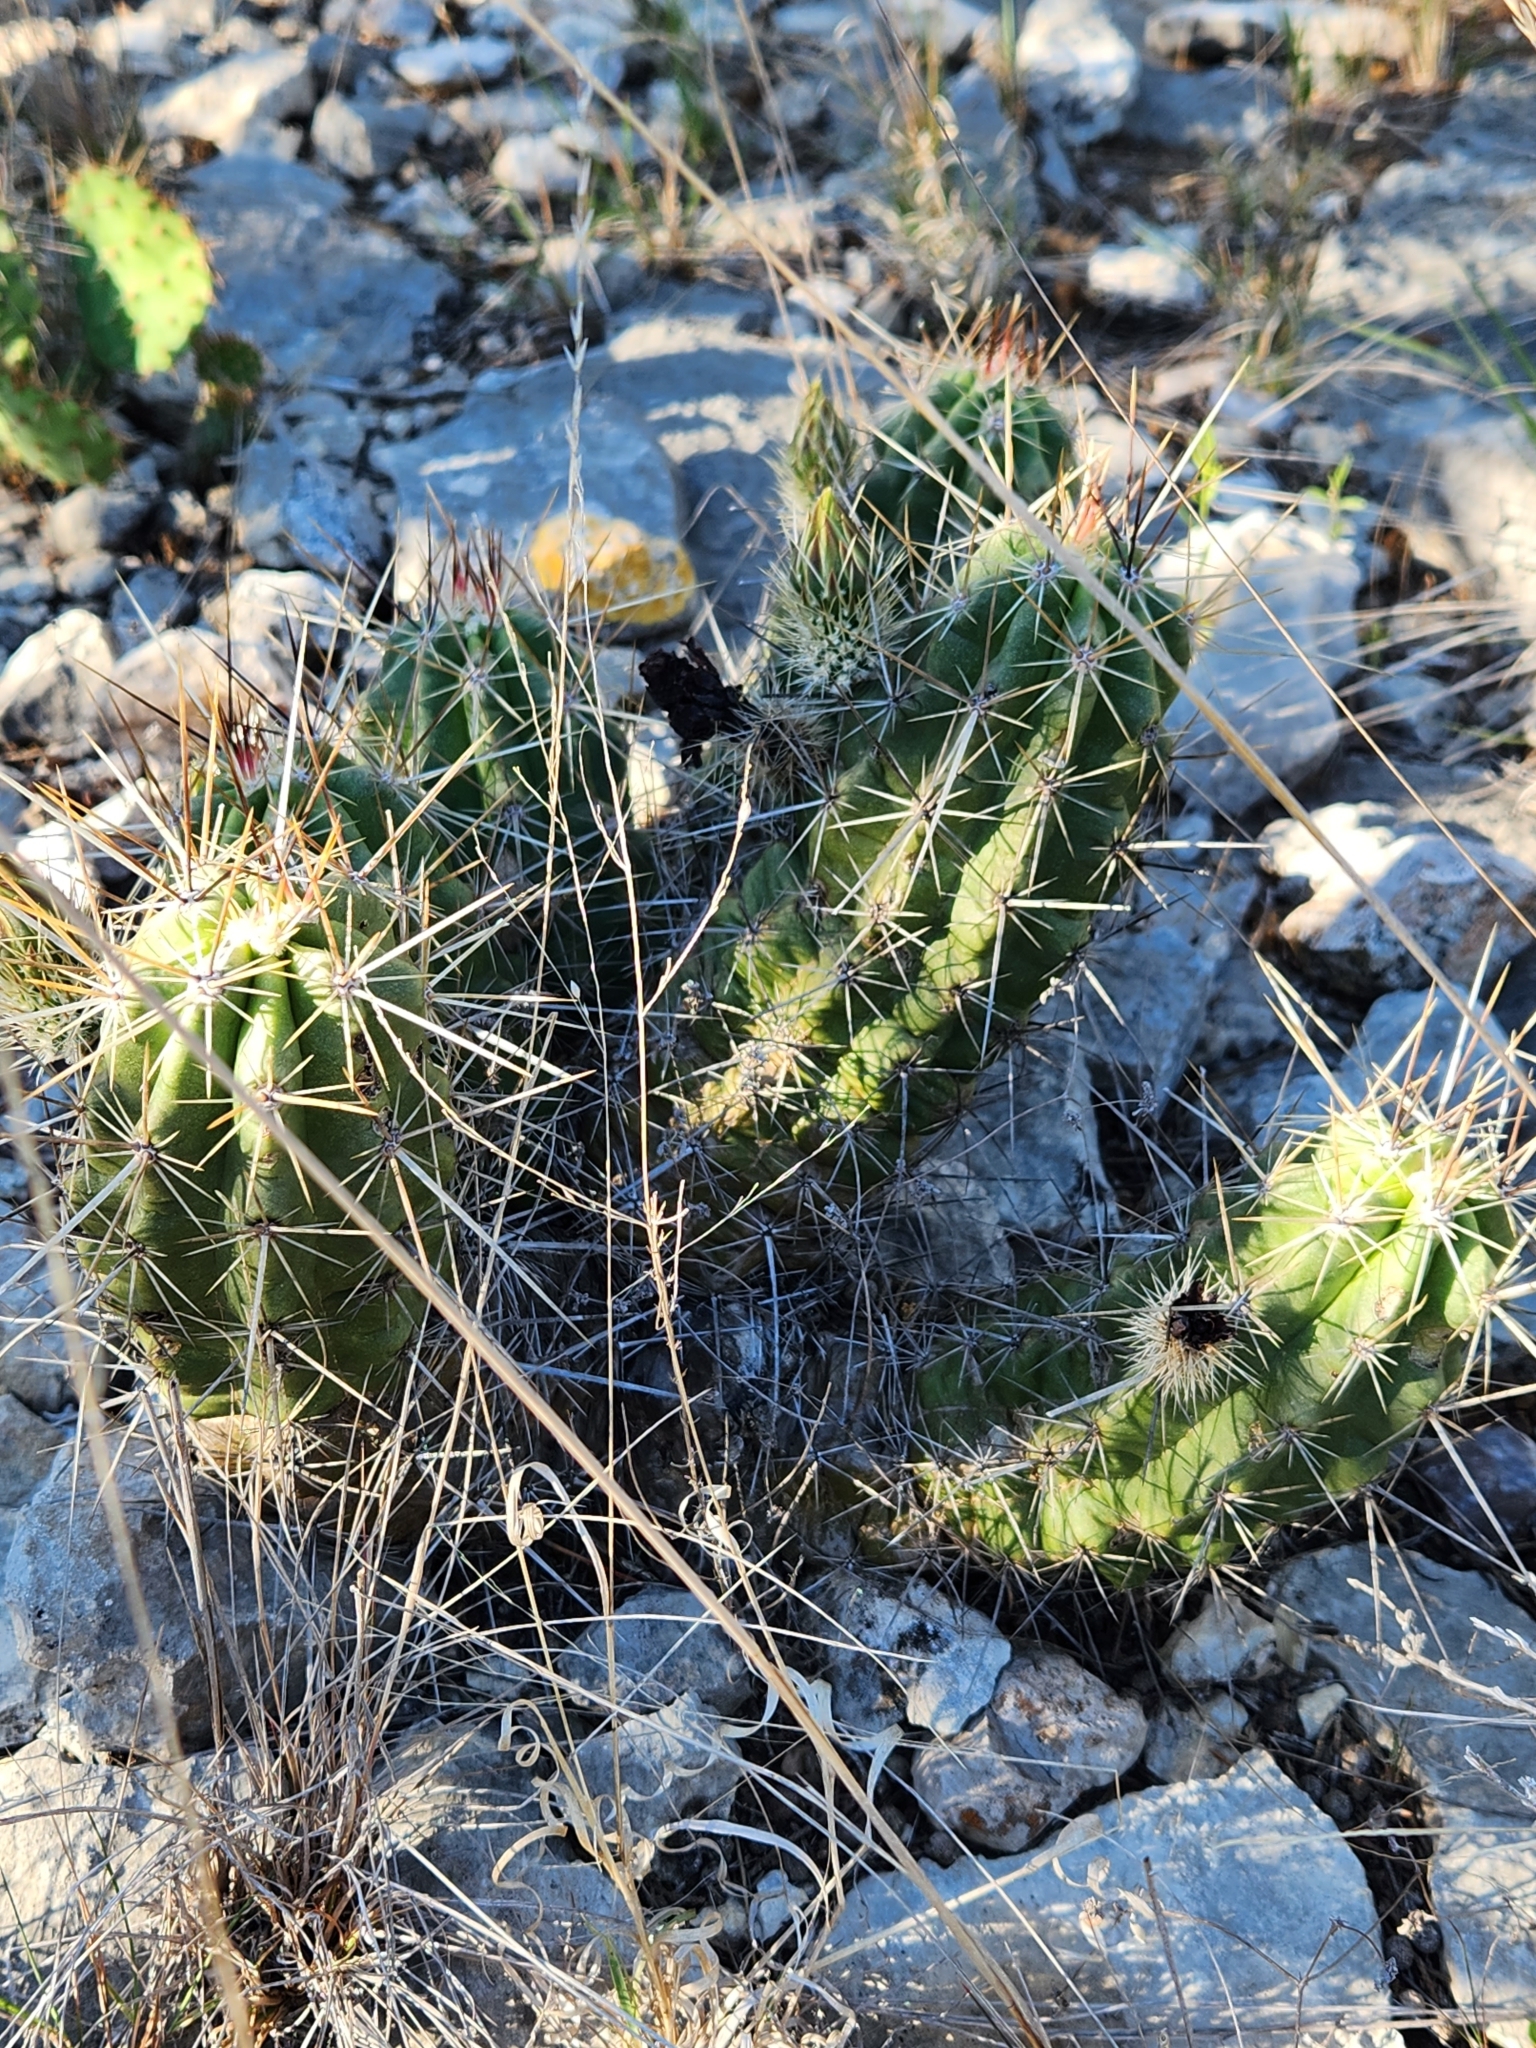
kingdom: Plantae
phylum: Tracheophyta
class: Magnoliopsida
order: Caryophyllales
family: Cactaceae
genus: Echinocereus
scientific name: Echinocereus enneacanthus
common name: Pitaya
